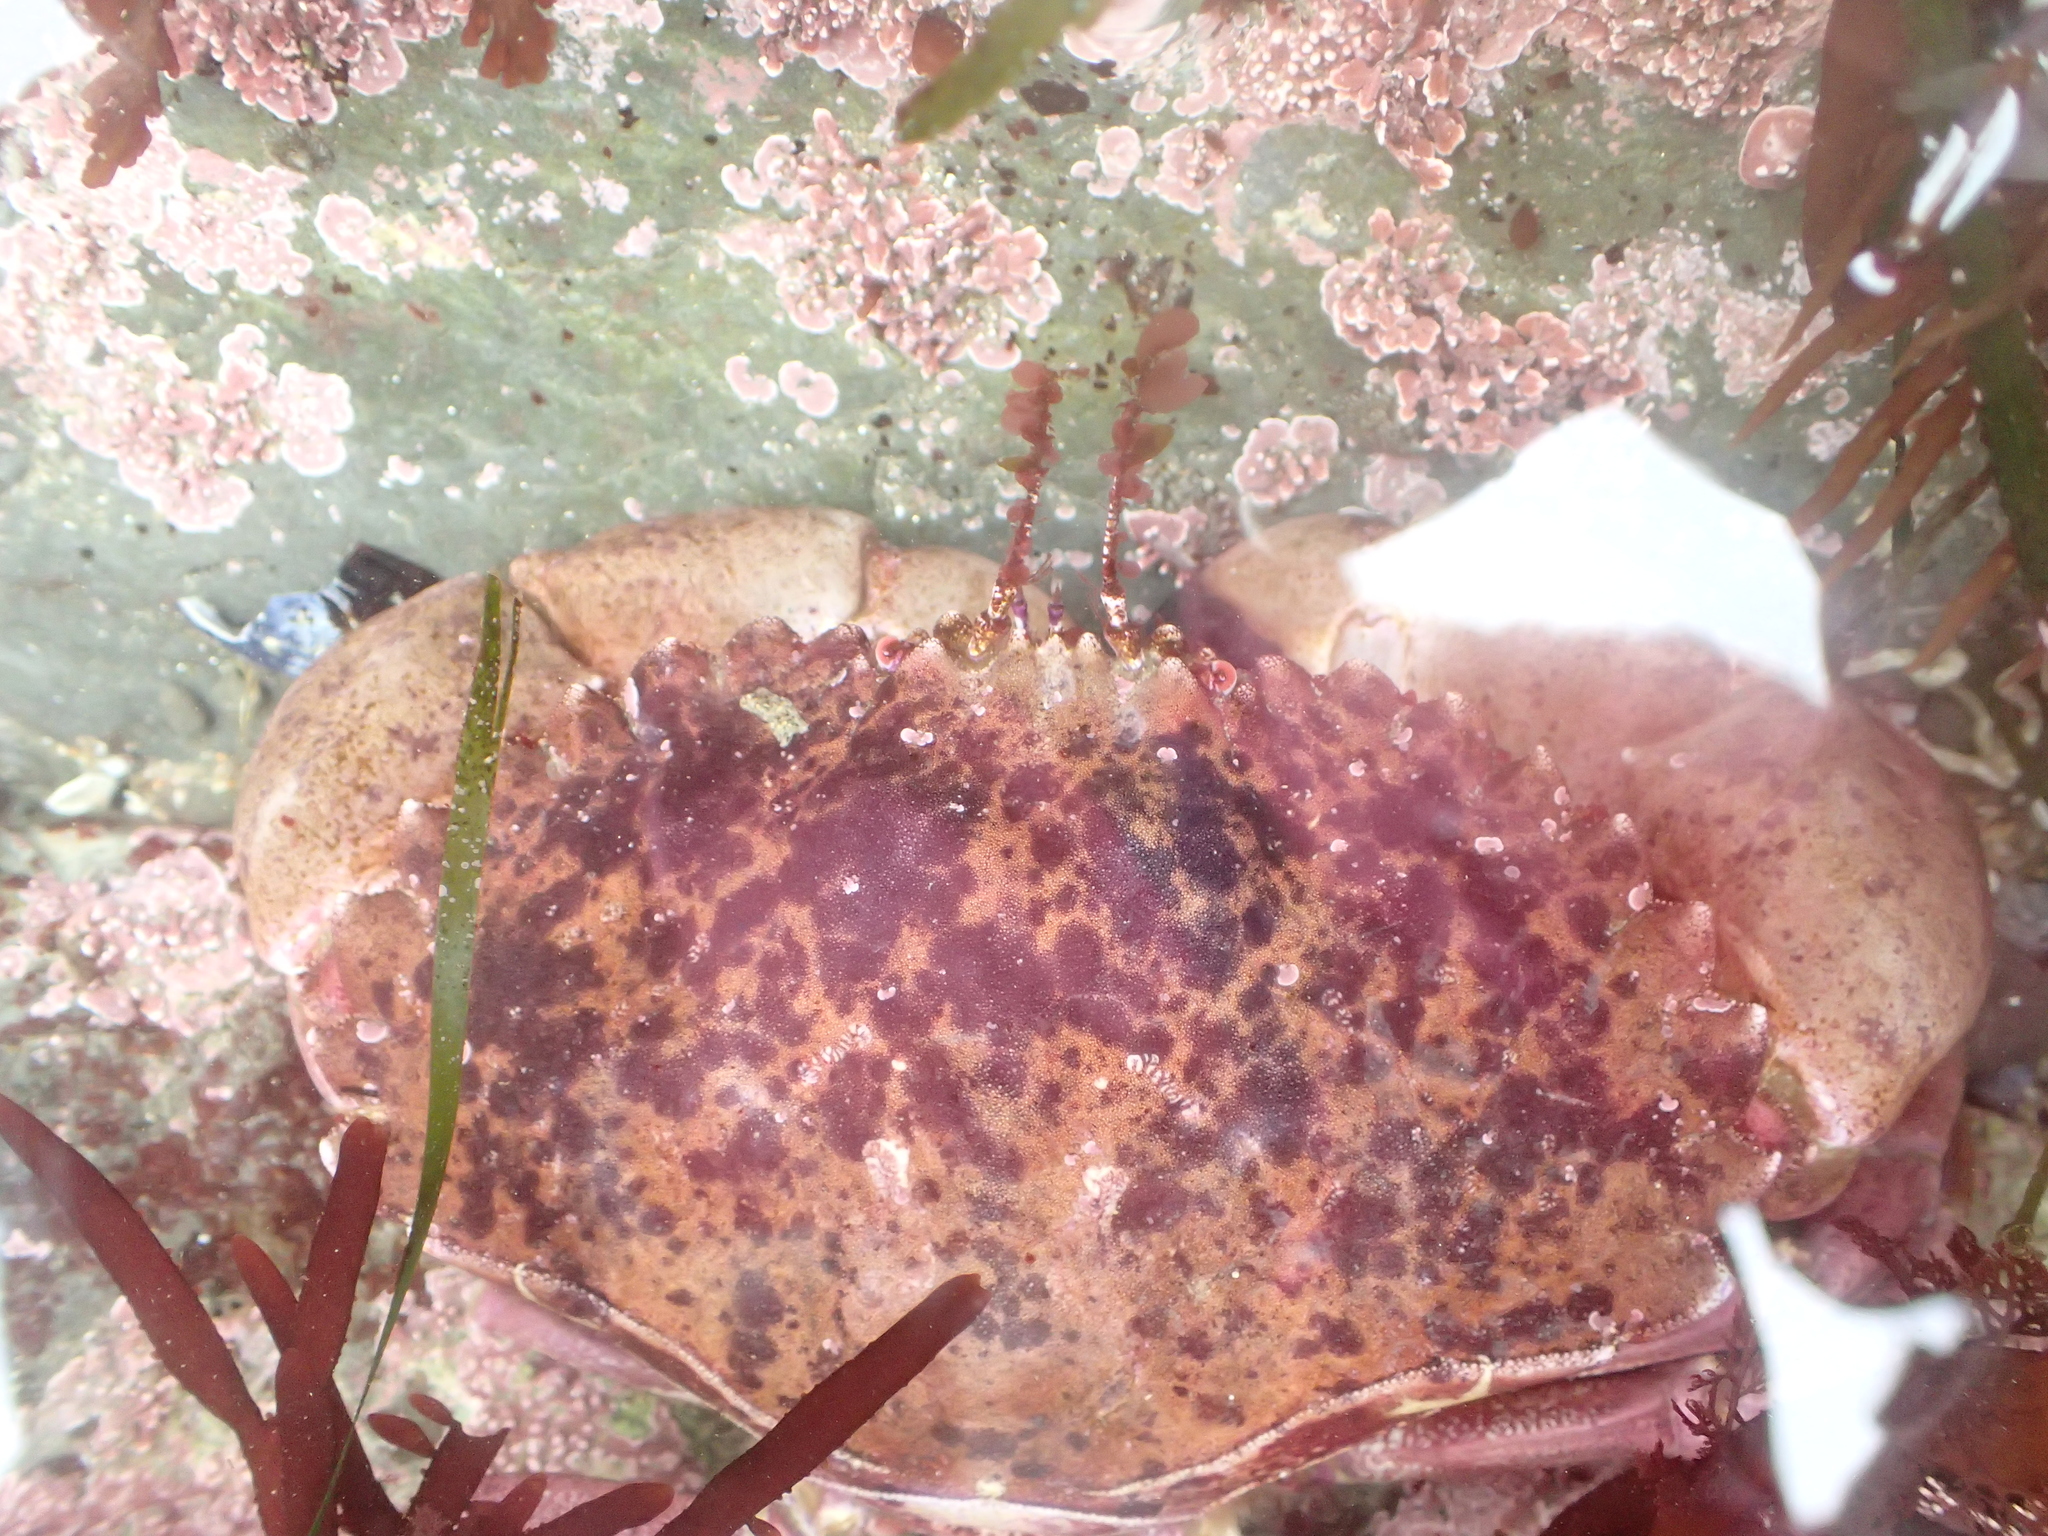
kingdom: Animalia
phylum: Arthropoda
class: Malacostraca
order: Decapoda
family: Cancridae
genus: Romaleon
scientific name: Romaleon antennarium
